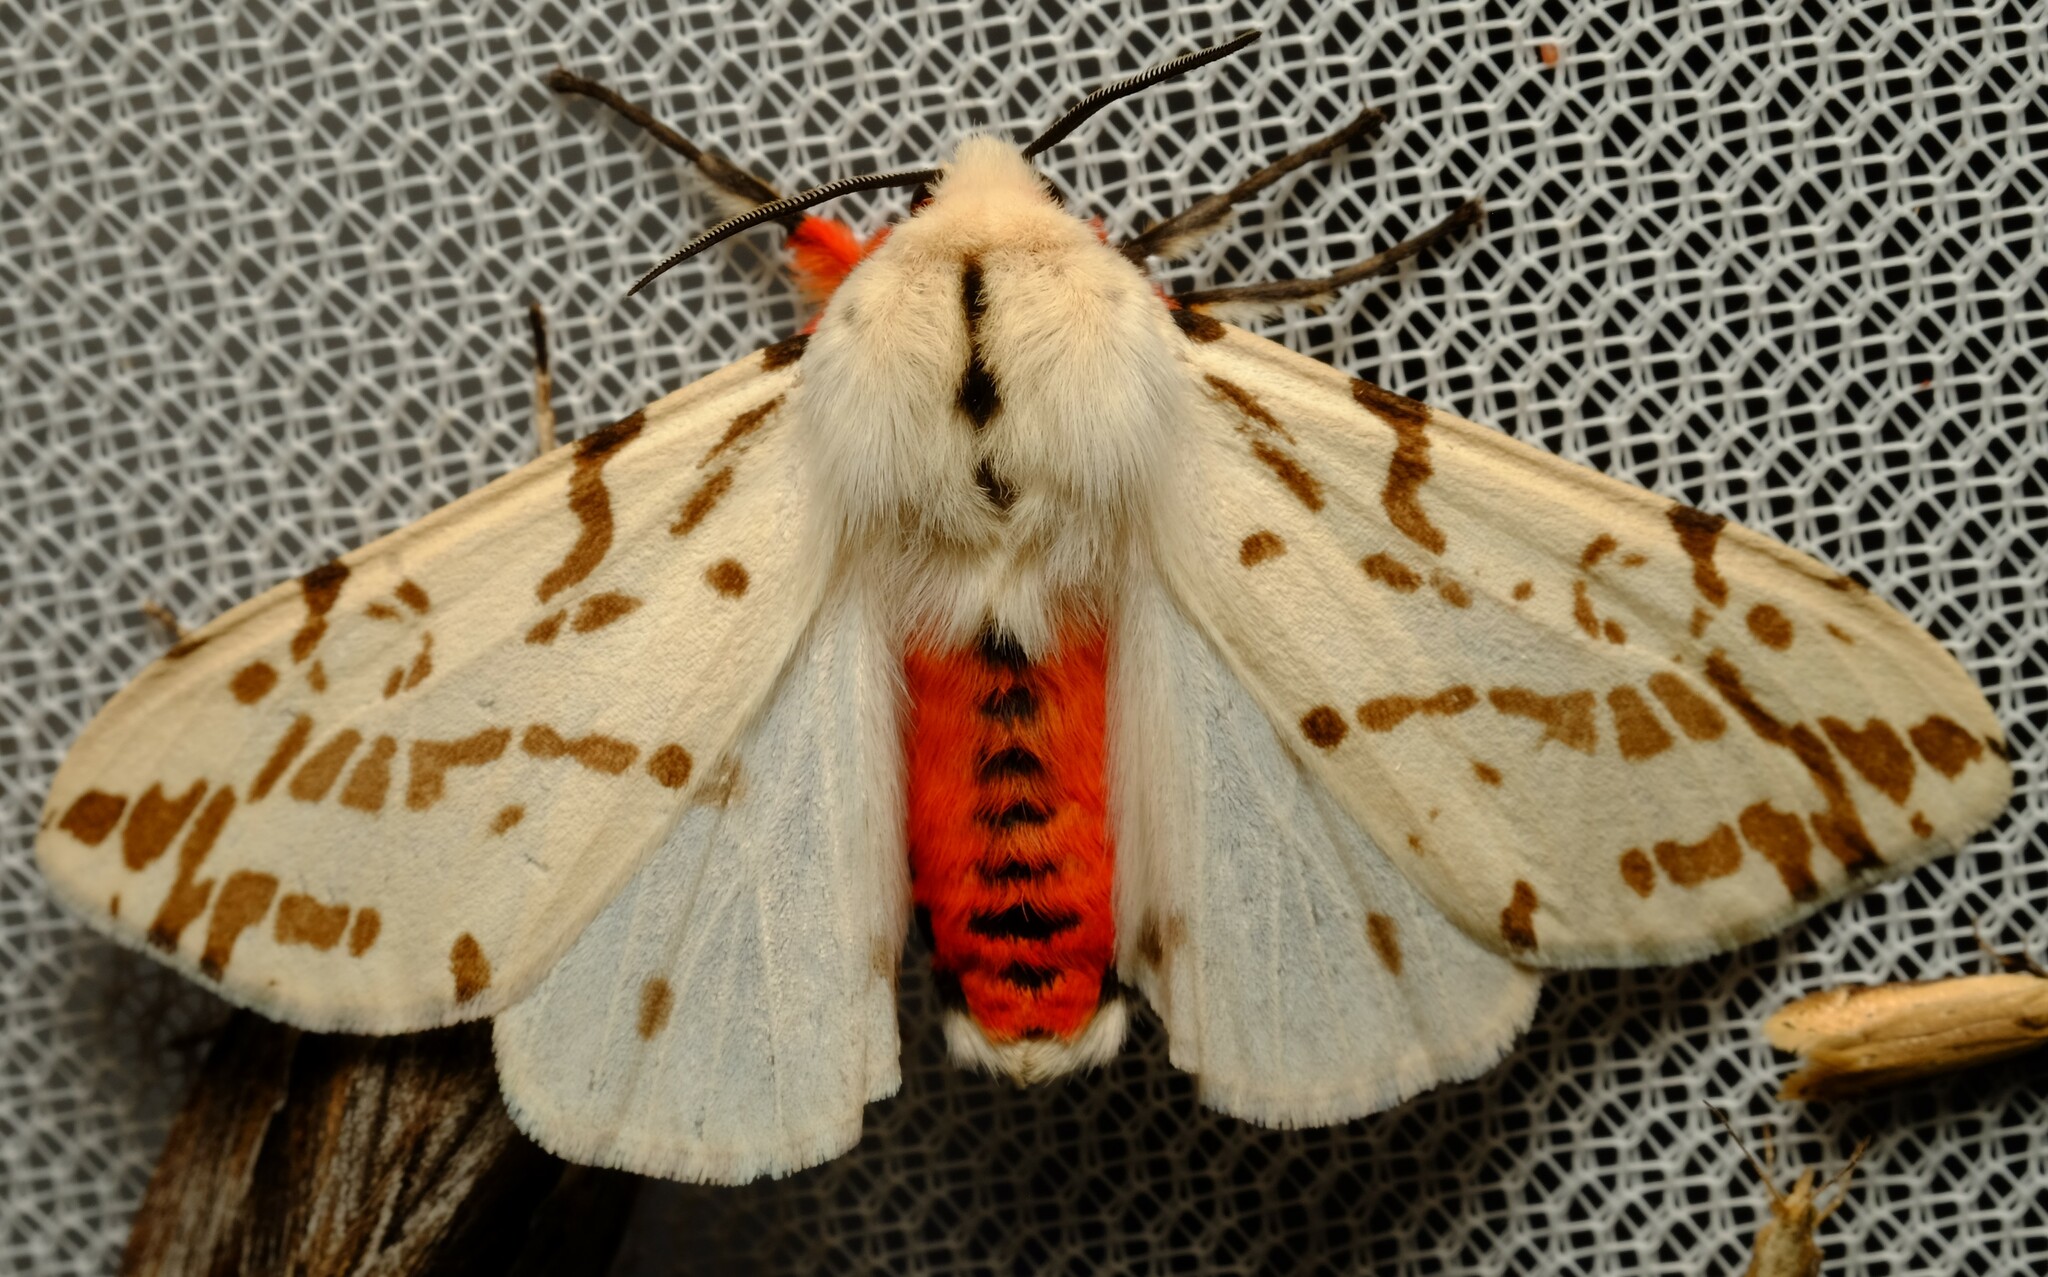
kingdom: Animalia
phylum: Arthropoda
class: Insecta
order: Lepidoptera
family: Erebidae
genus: Ardices
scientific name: Ardices canescens
